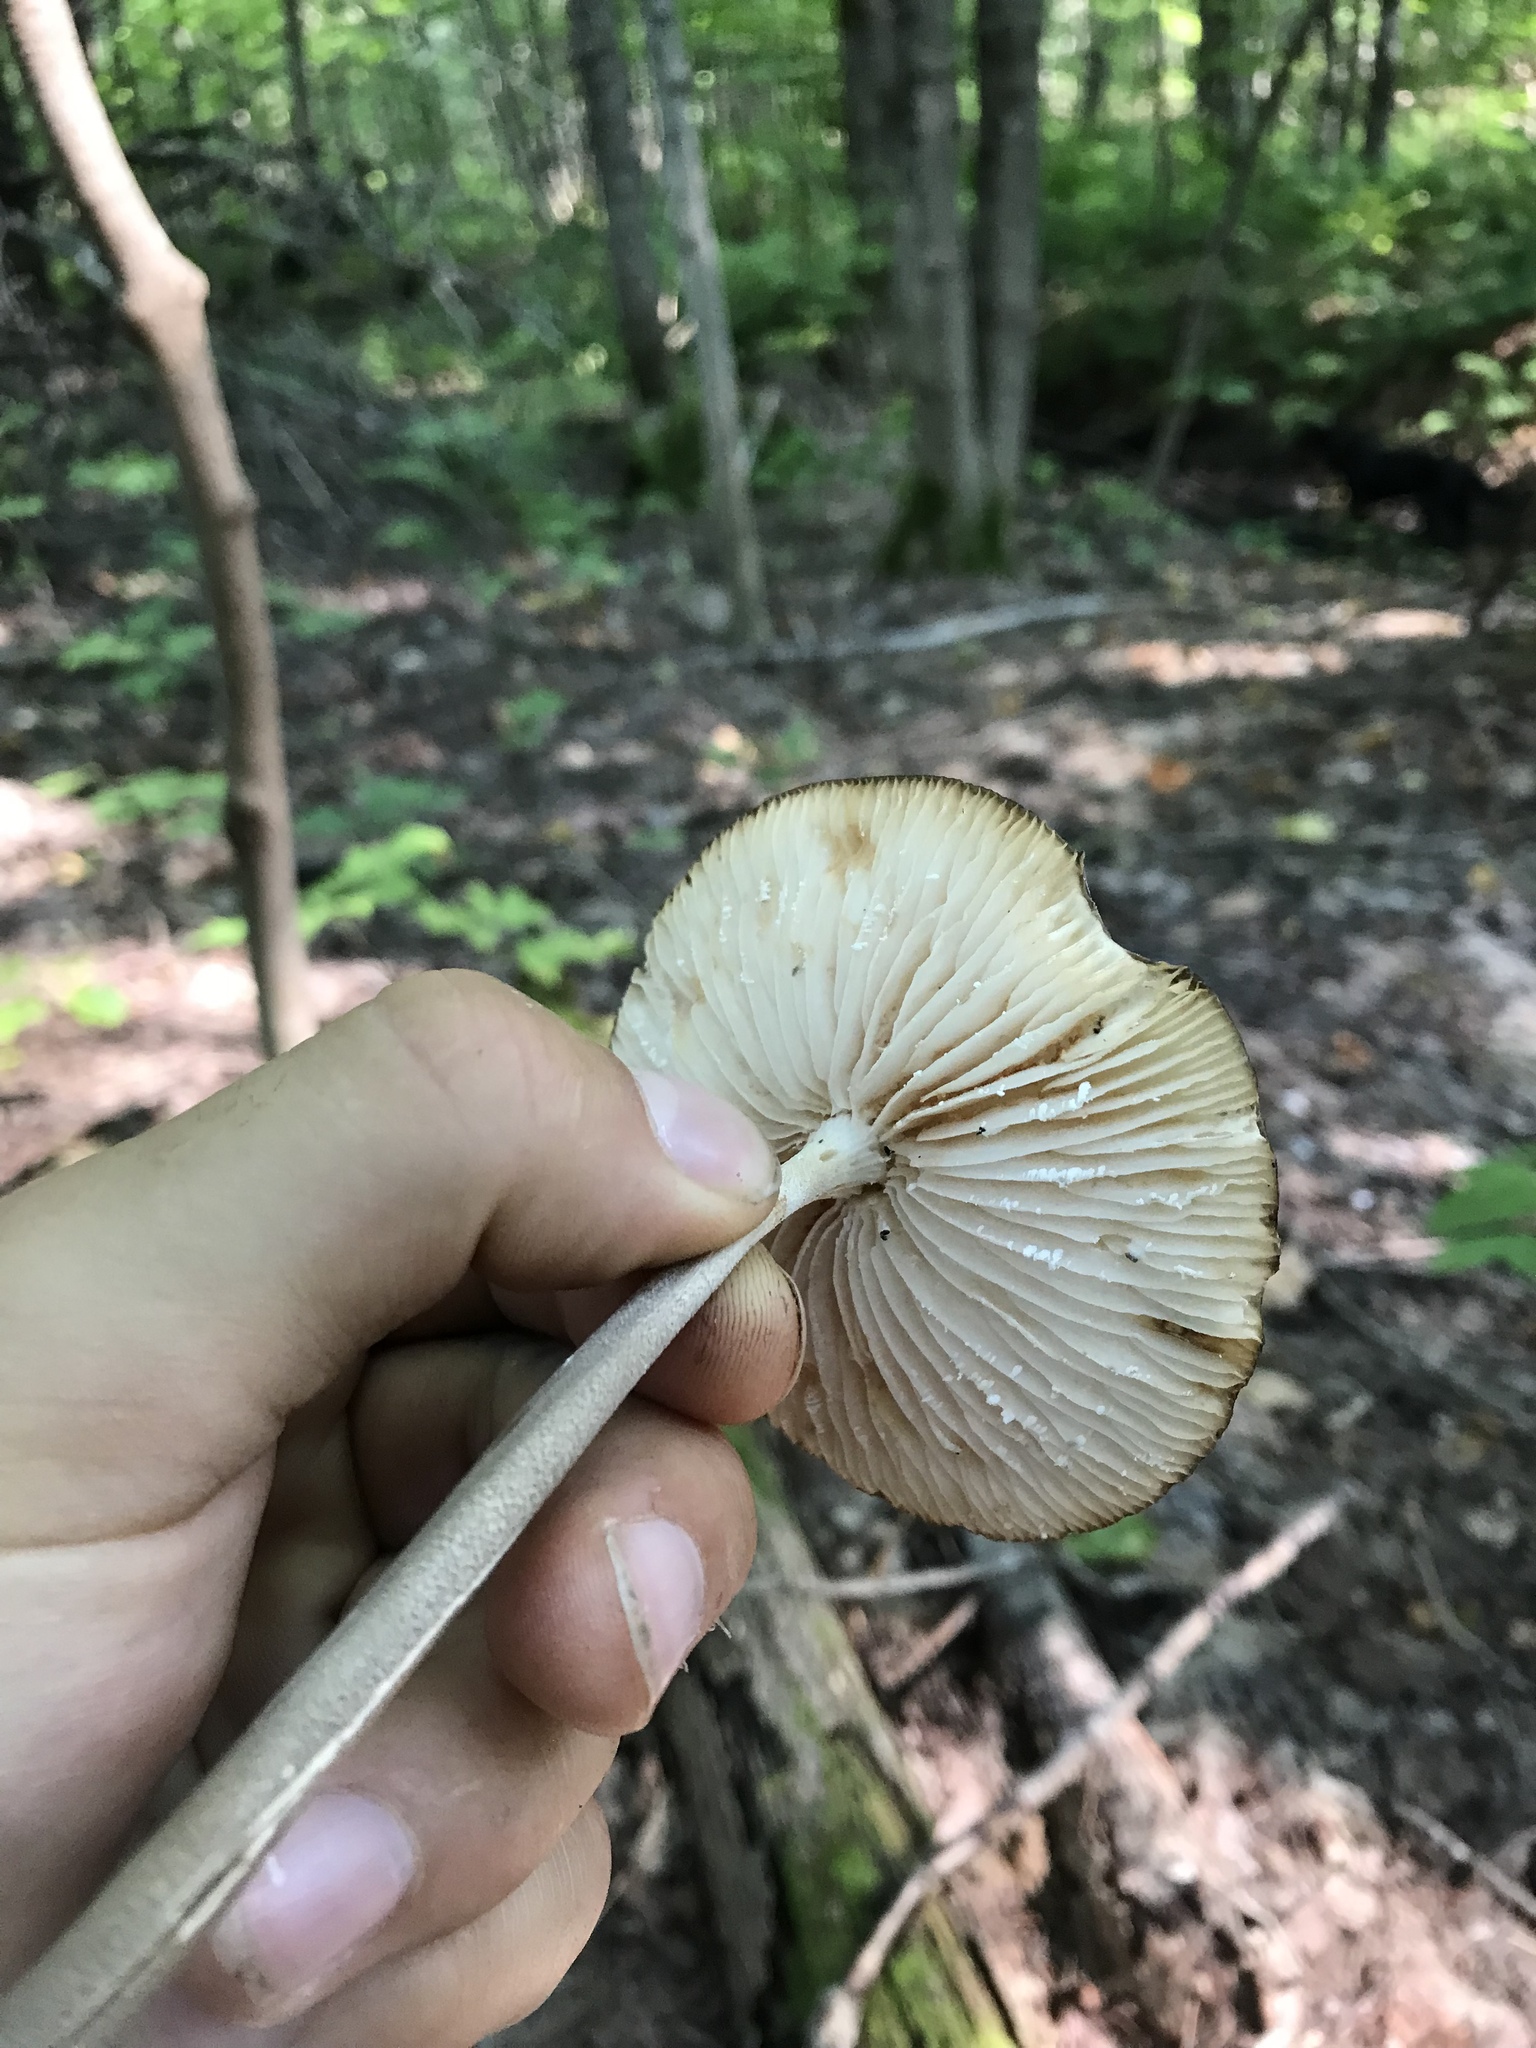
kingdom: Fungi
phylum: Basidiomycota
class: Agaricomycetes
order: Agaricales
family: Physalacriaceae
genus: Hymenopellis
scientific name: Hymenopellis furfuracea
